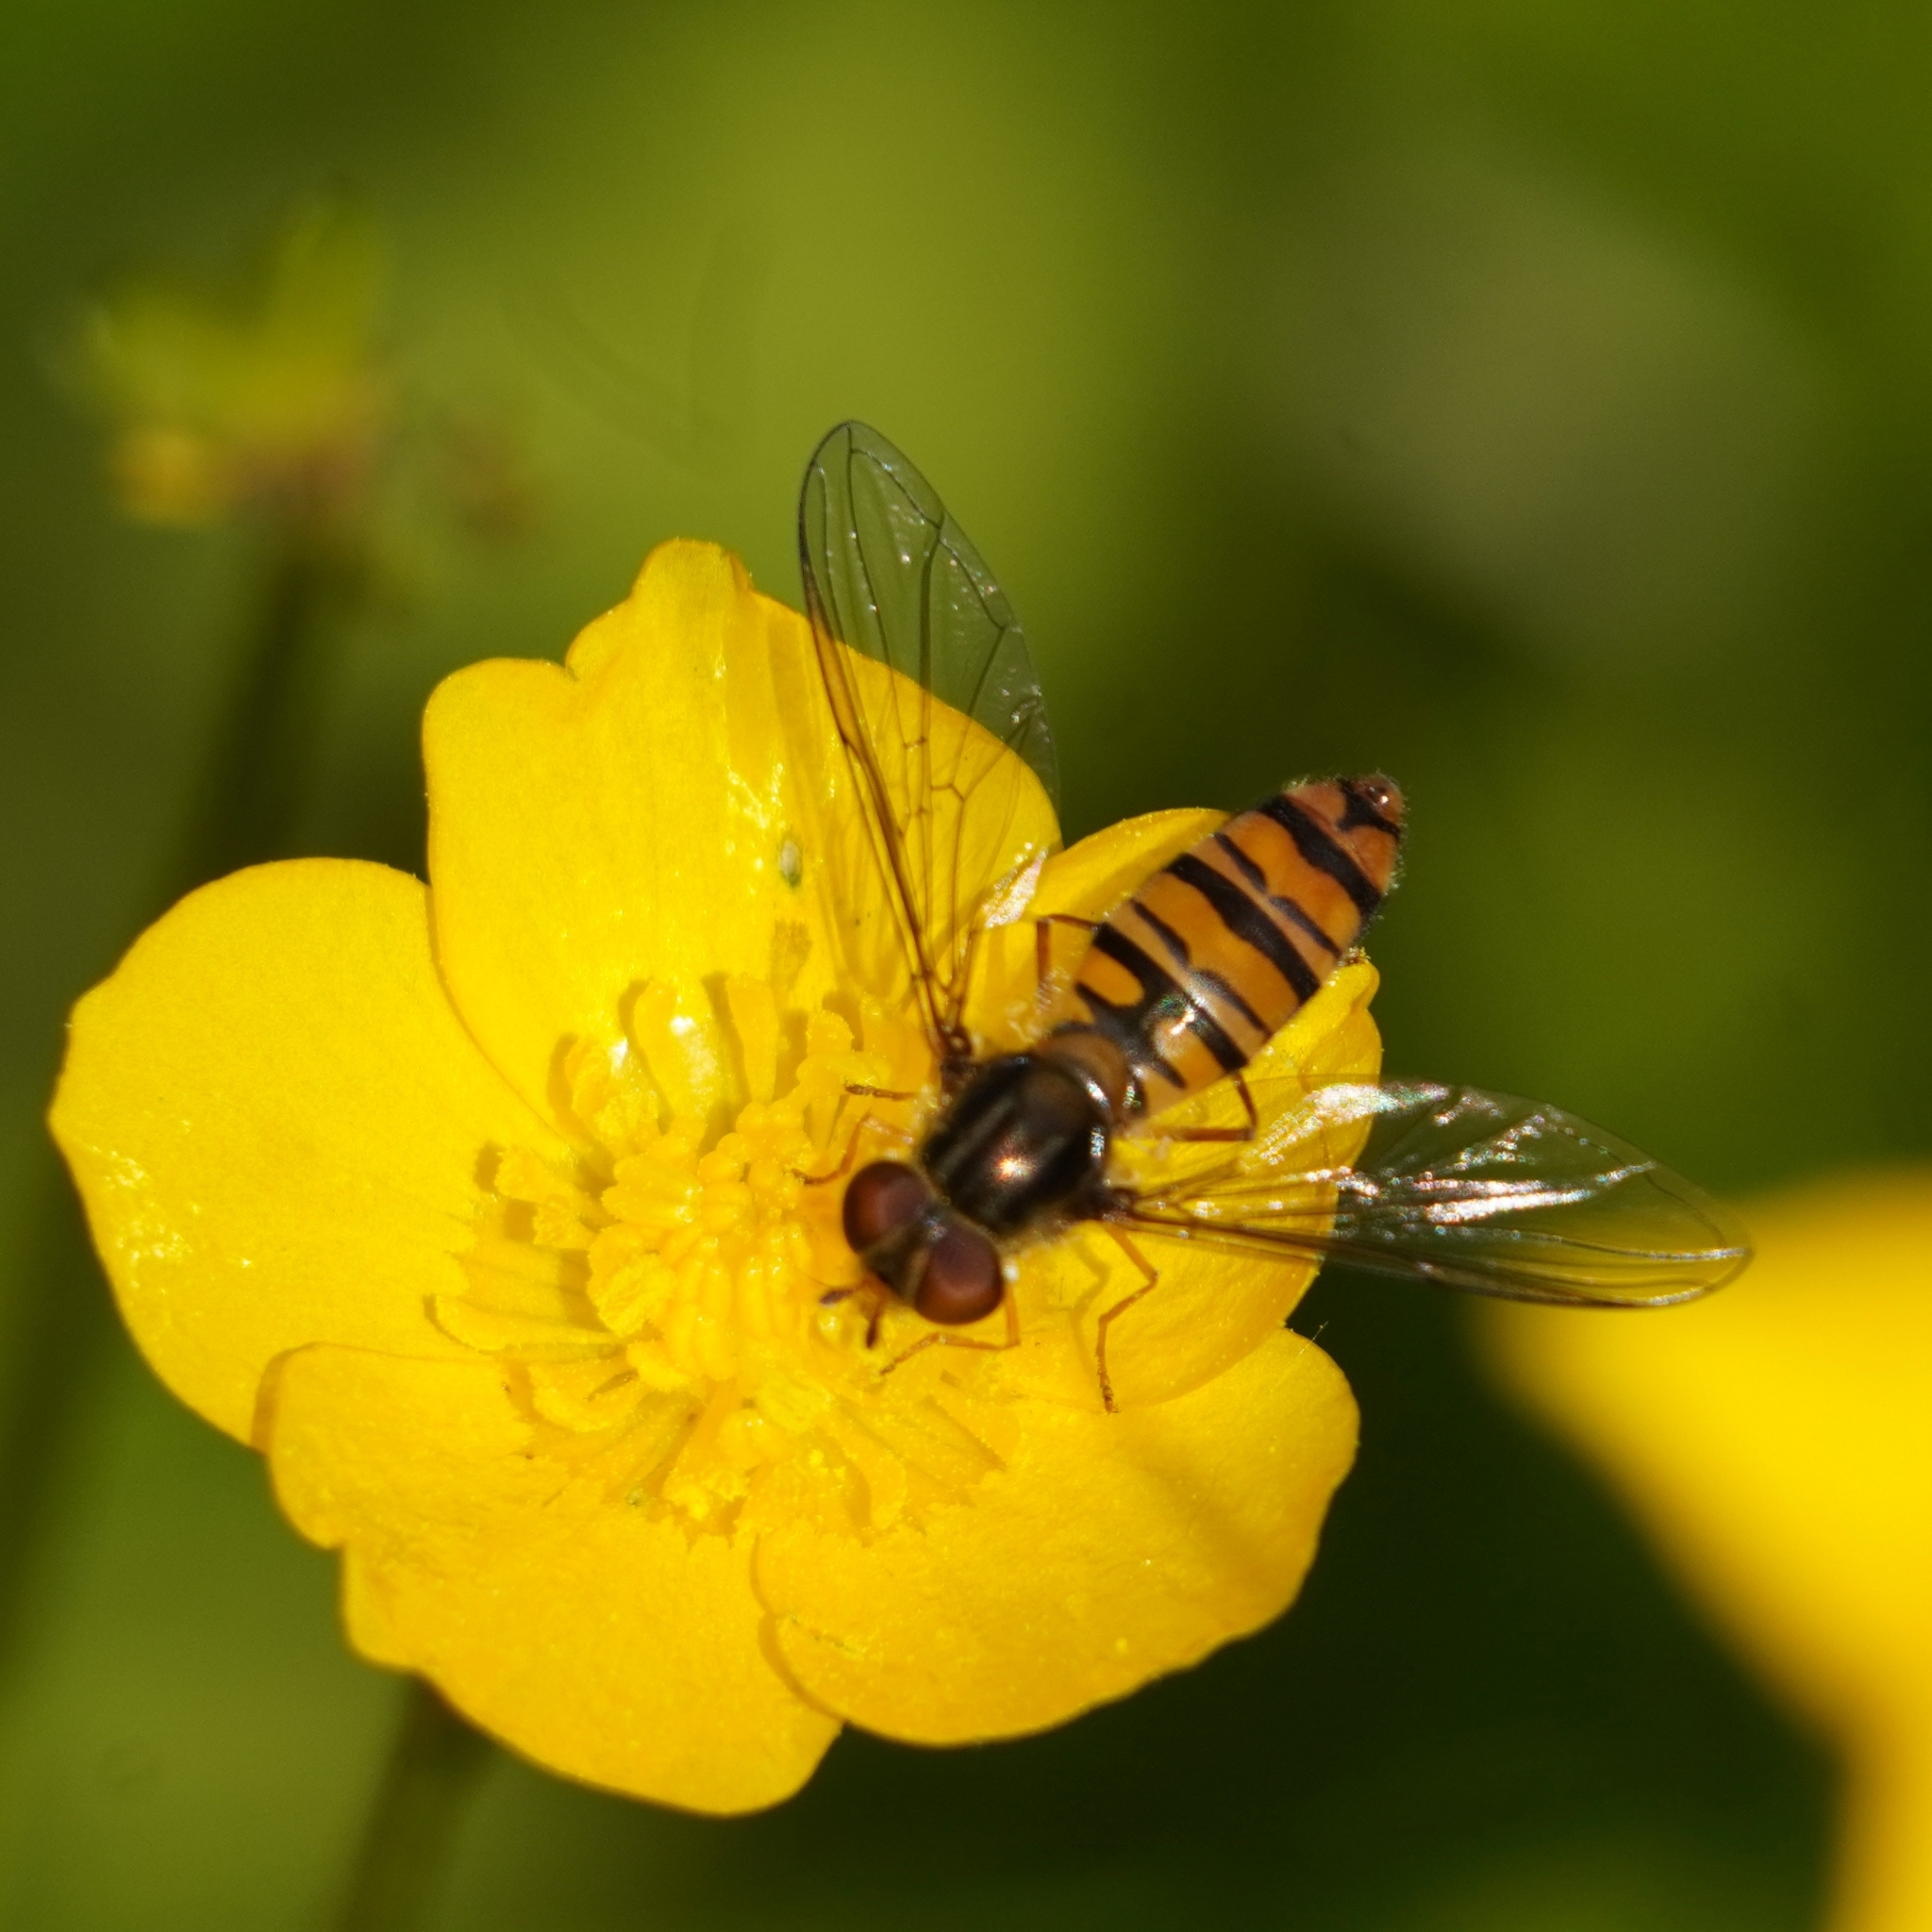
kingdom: Animalia
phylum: Arthropoda
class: Insecta
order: Diptera
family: Syrphidae
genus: Episyrphus
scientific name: Episyrphus balteatus
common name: Marmalade hoverfly
